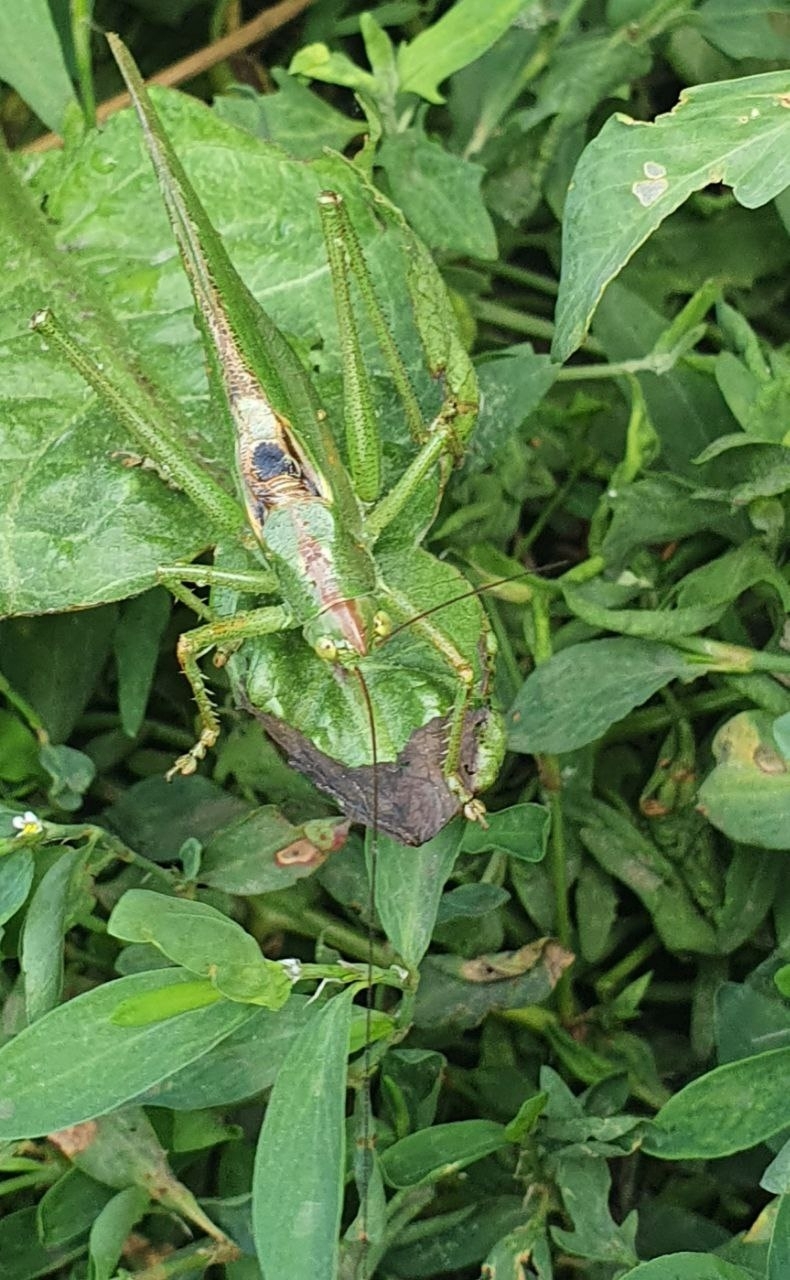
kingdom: Animalia
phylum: Arthropoda
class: Insecta
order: Orthoptera
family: Tettigoniidae
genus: Tettigonia
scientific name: Tettigonia viridissima
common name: Great green bush-cricket
